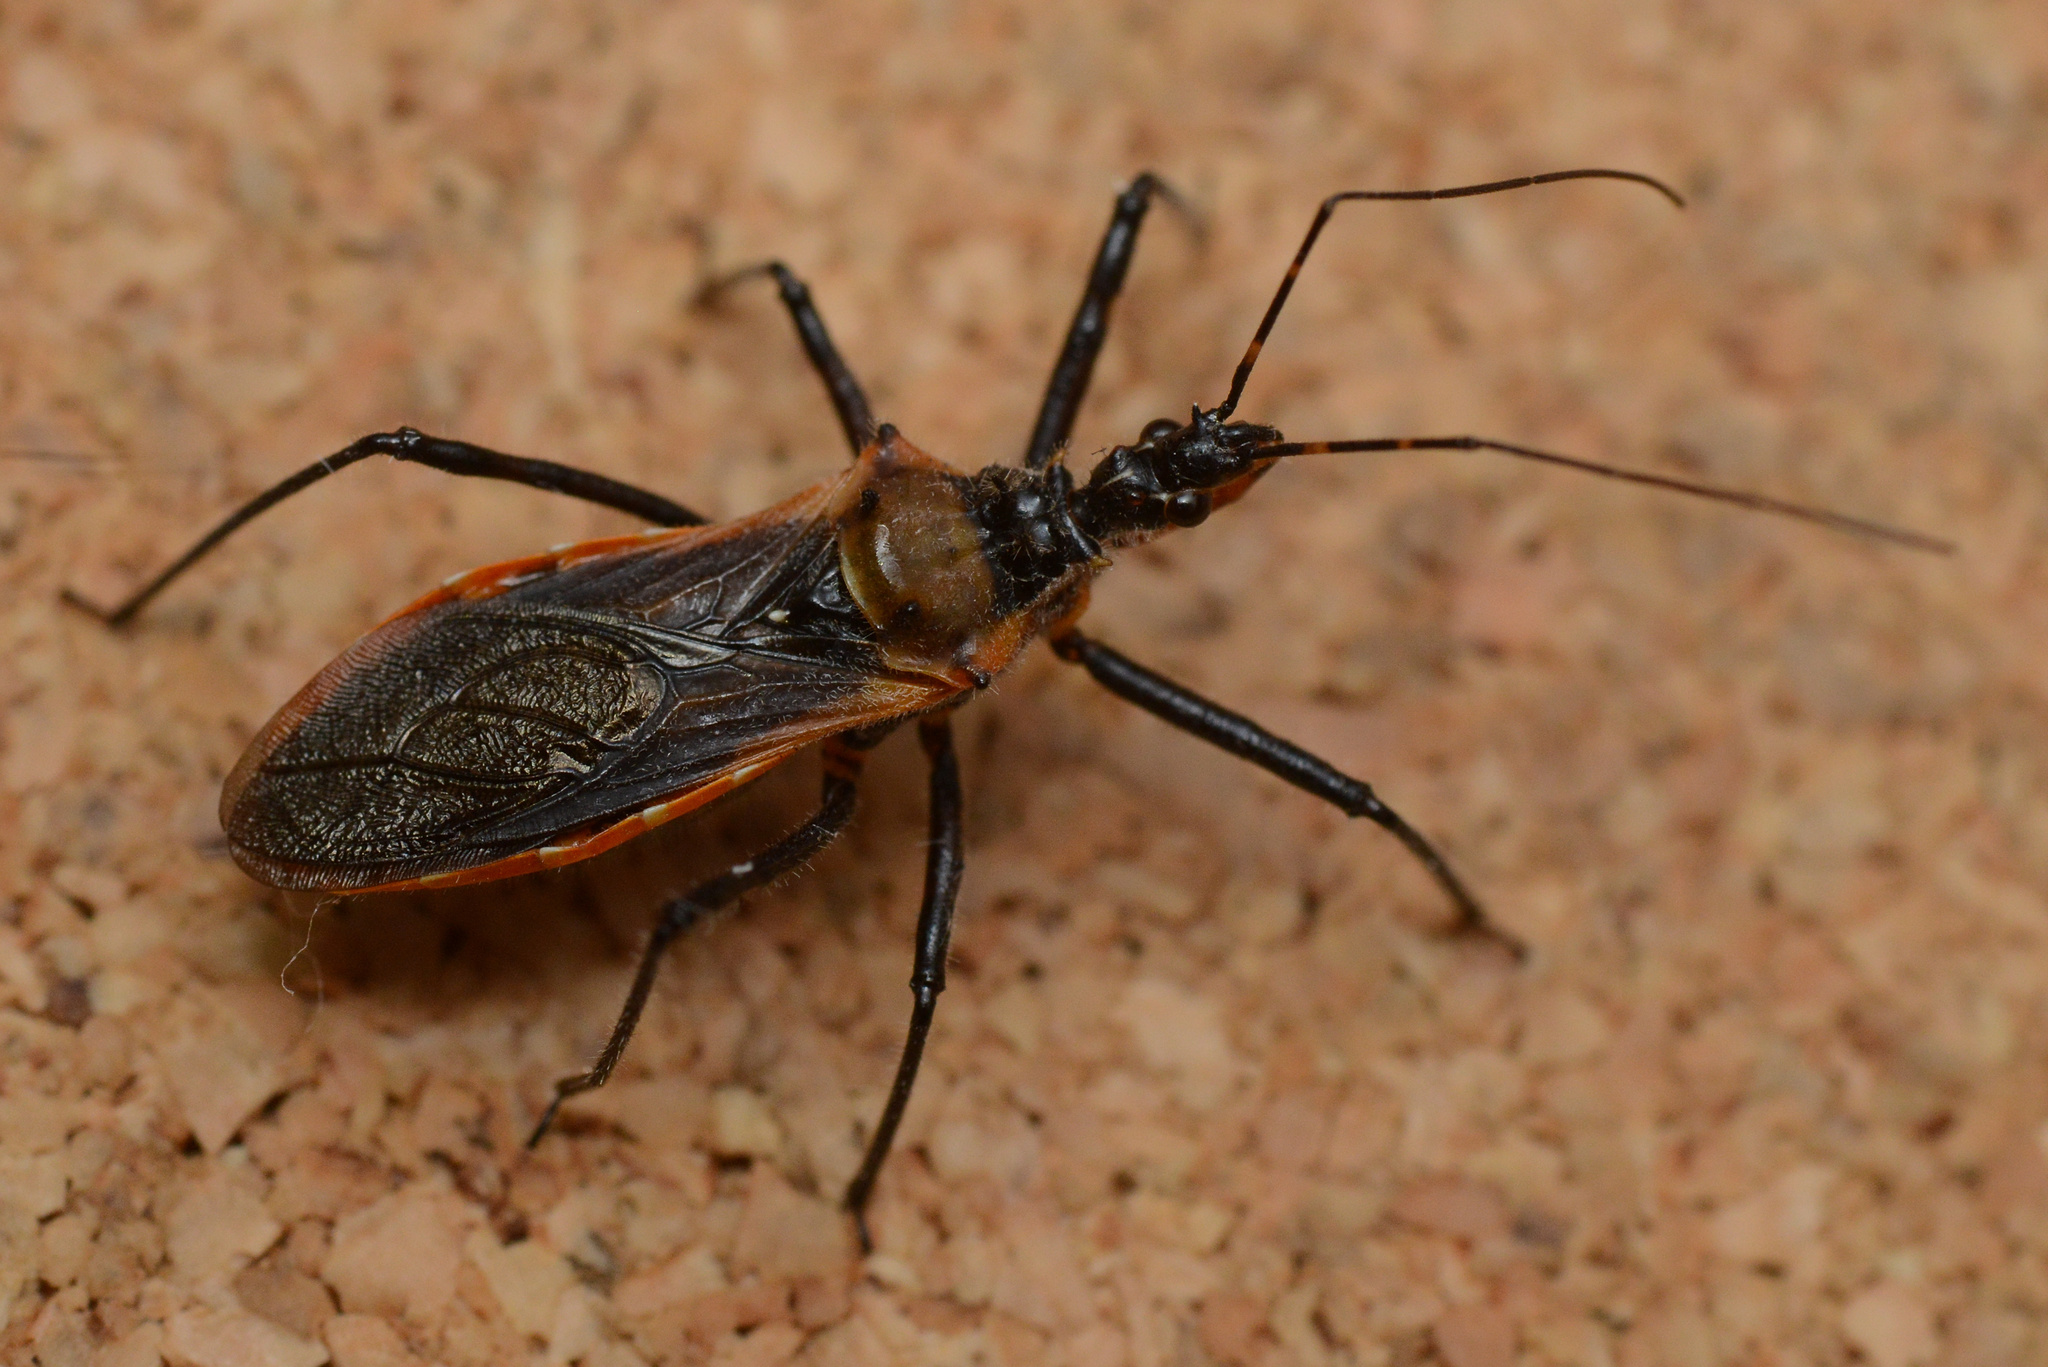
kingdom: Animalia
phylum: Arthropoda
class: Insecta
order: Hemiptera
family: Reduviidae
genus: Gminatus
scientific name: Gminatus australis
